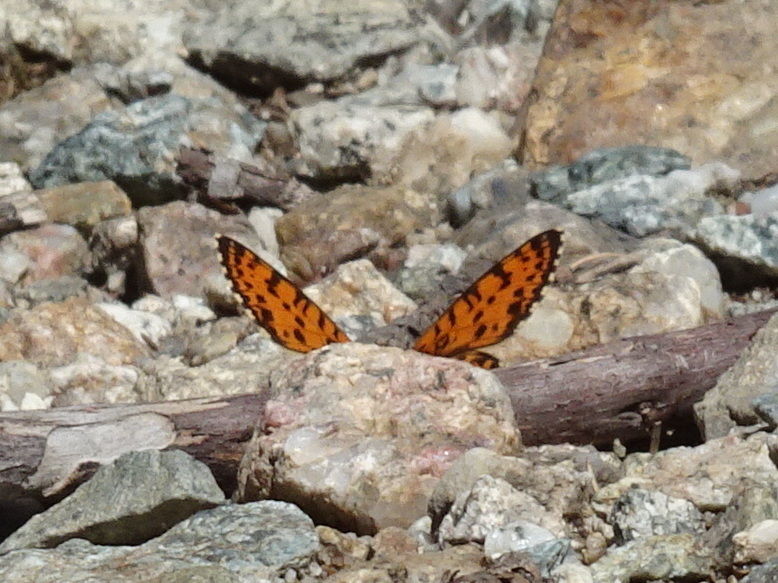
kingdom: Animalia
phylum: Arthropoda
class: Insecta
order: Lepidoptera
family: Nymphalidae
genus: Melitaea
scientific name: Melitaea didyma
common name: Spotted fritillary
